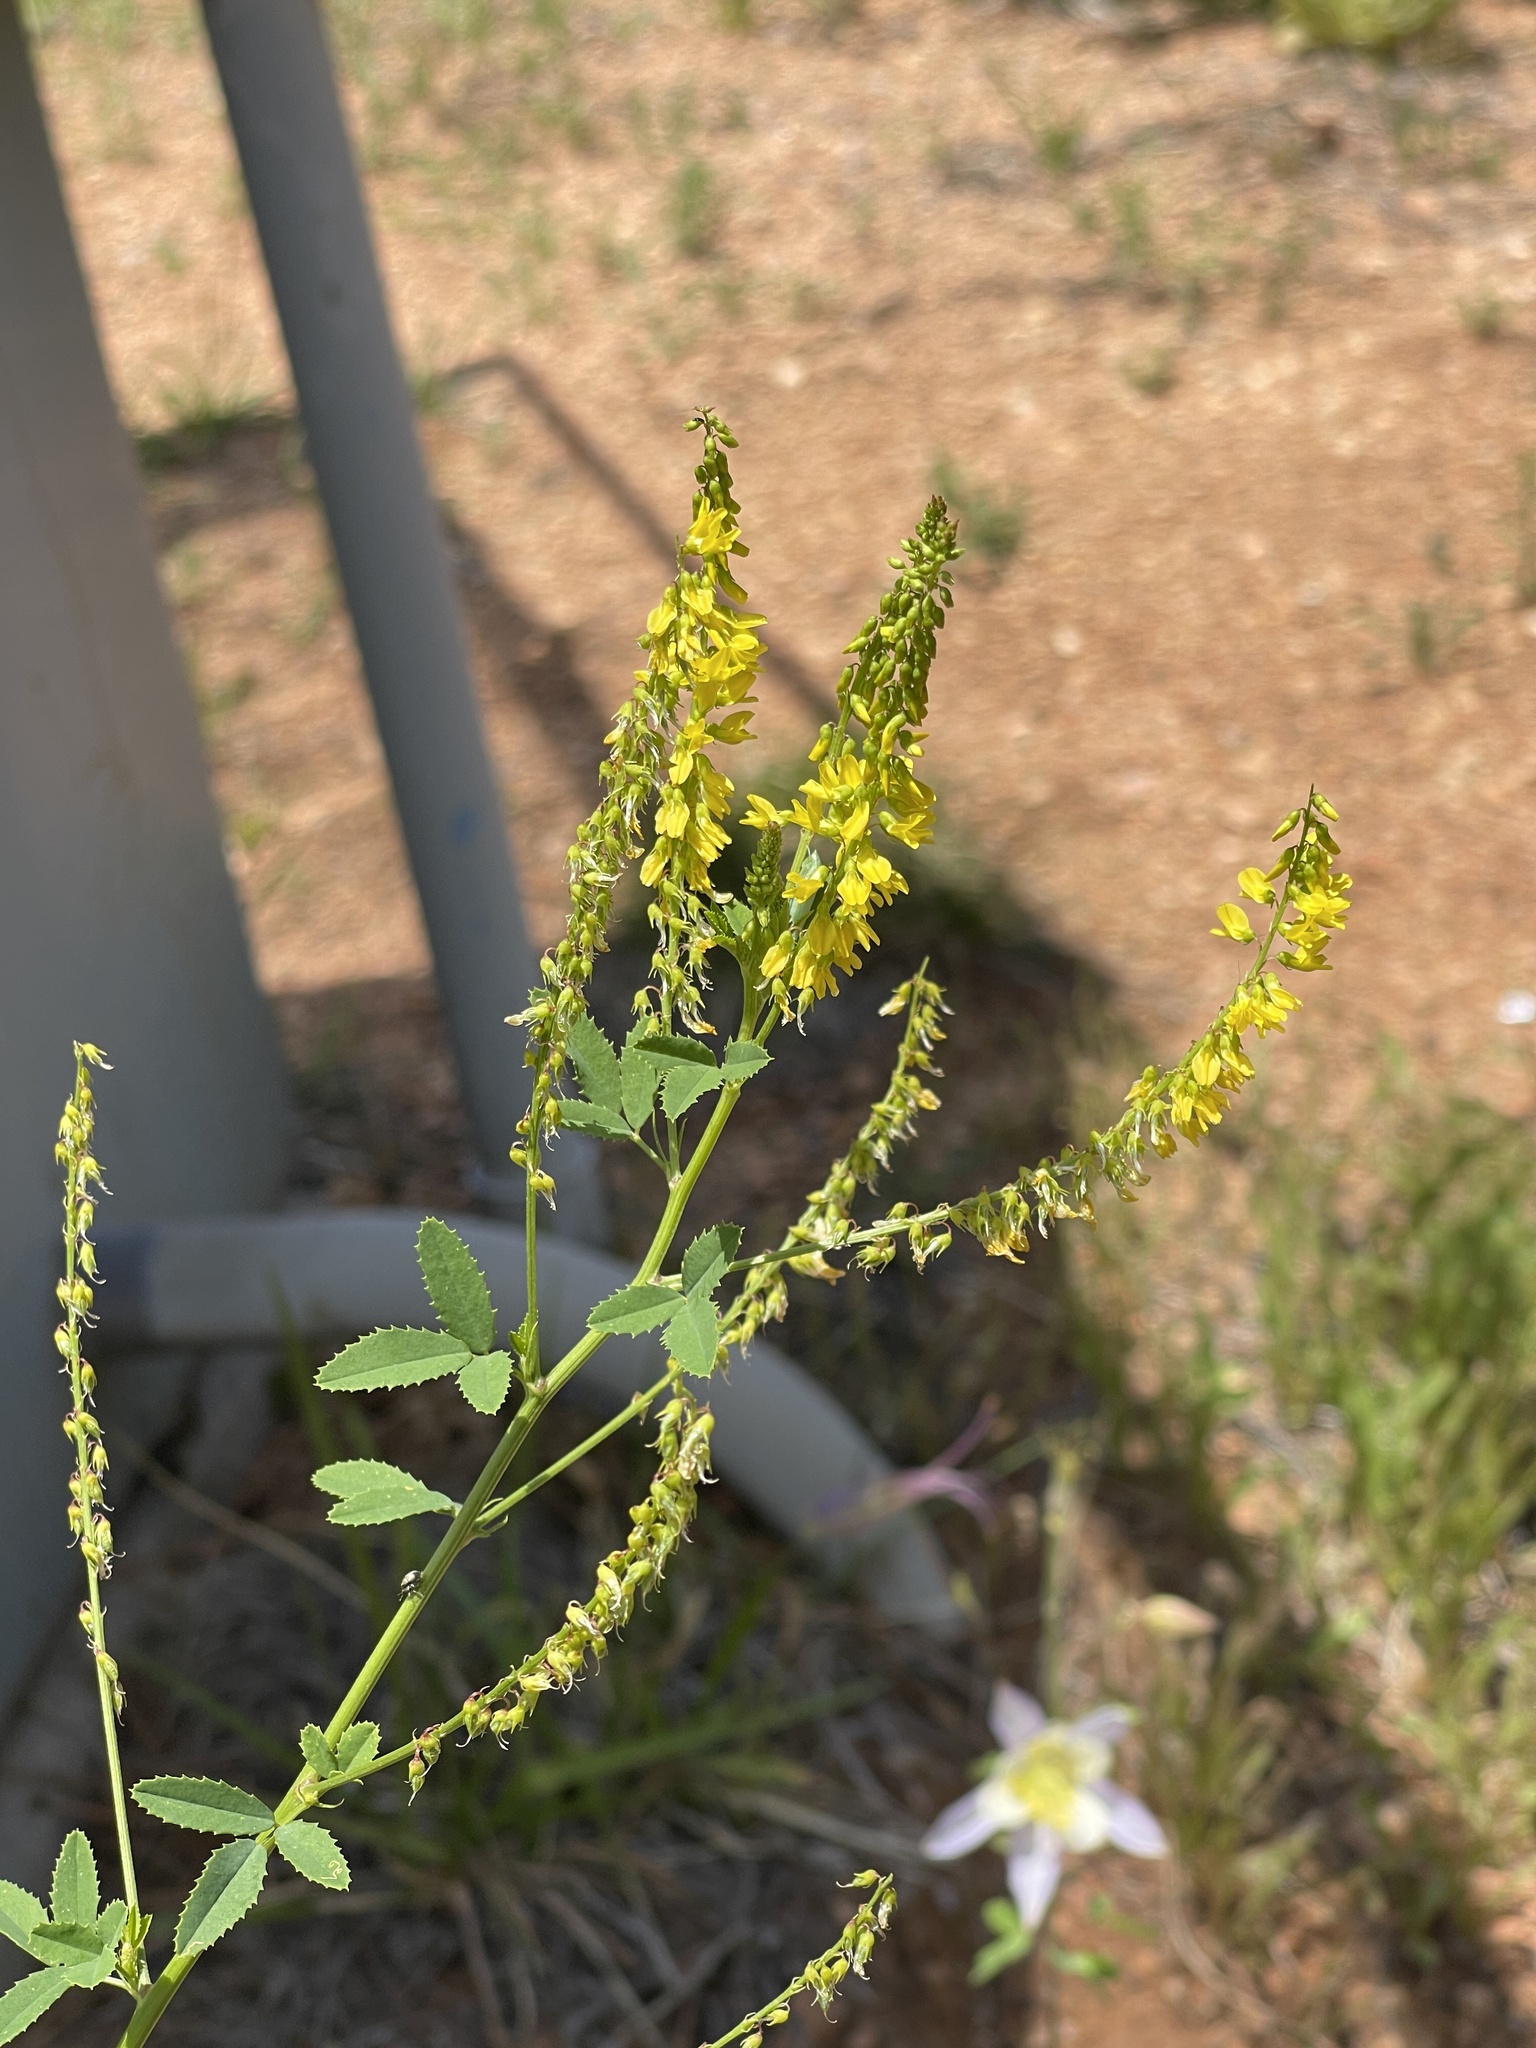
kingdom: Plantae
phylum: Tracheophyta
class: Magnoliopsida
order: Fabales
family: Fabaceae
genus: Melilotus
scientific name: Melilotus officinalis
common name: Sweetclover
